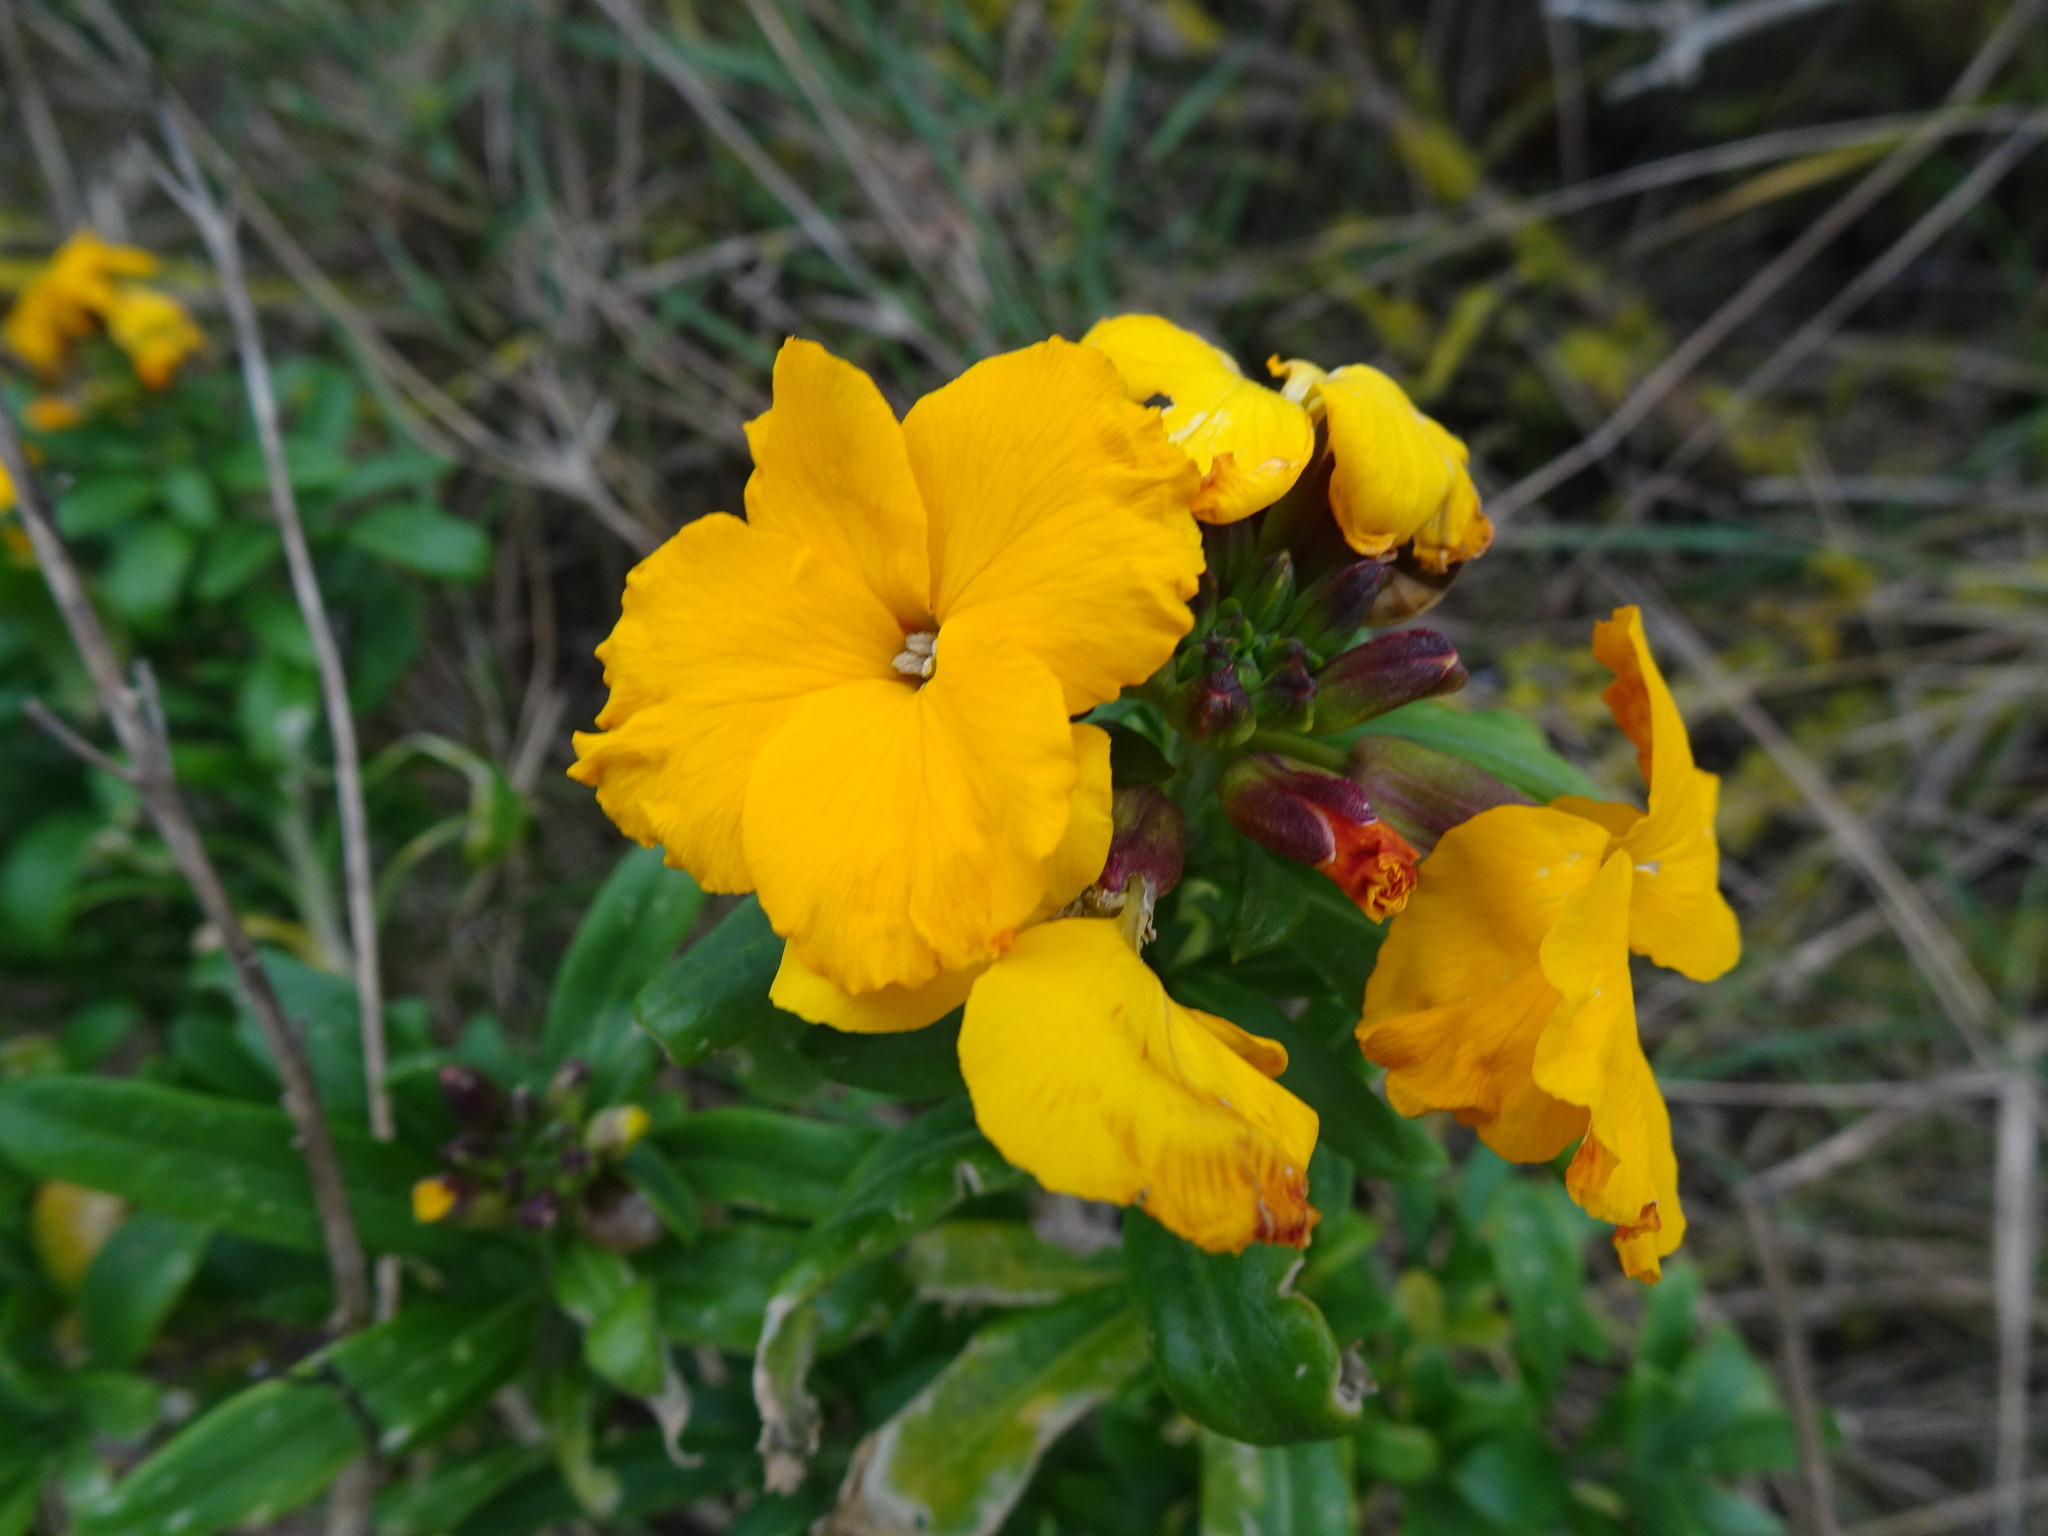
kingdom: Plantae
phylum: Tracheophyta
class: Magnoliopsida
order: Brassicales
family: Brassicaceae
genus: Erysimum
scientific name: Erysimum cheiri
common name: Wallflower
